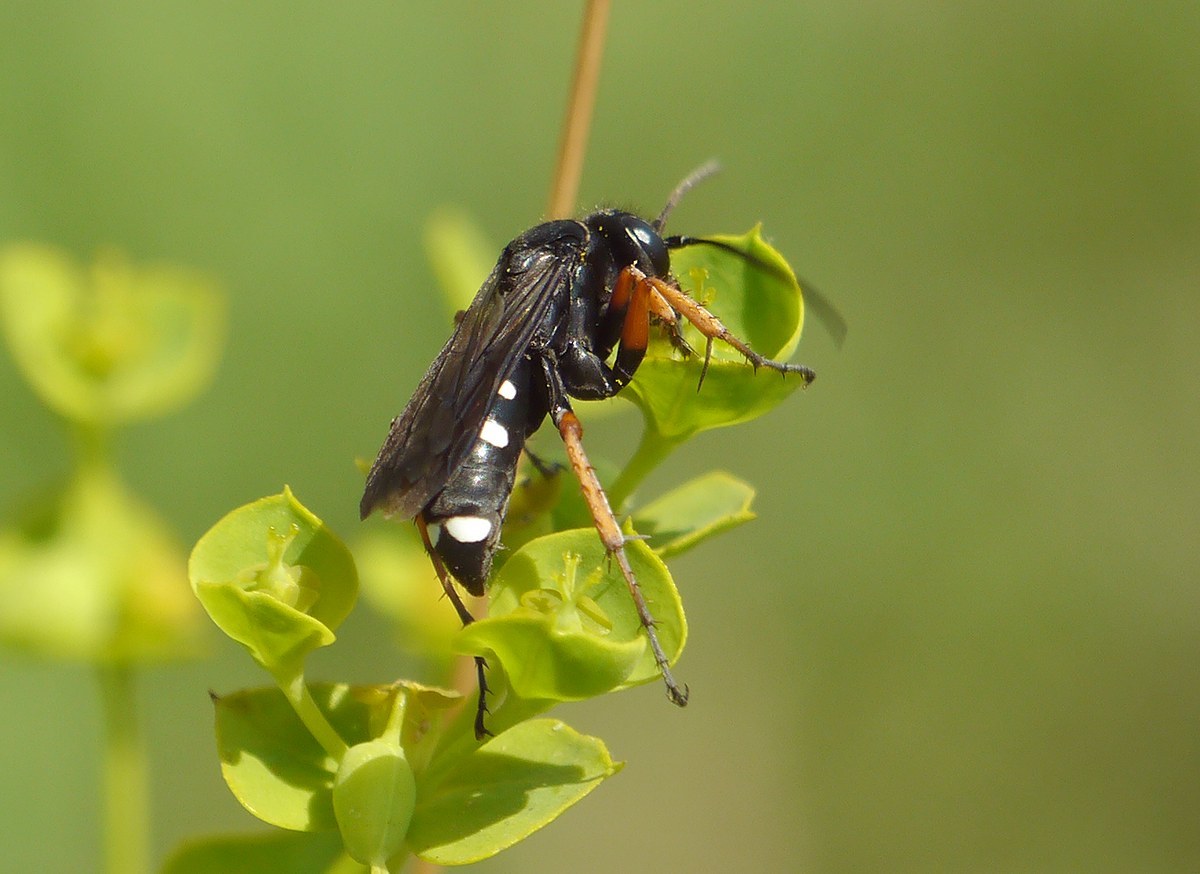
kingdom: Animalia
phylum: Arthropoda
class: Insecta
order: Hymenoptera
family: Pompilidae
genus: Episyron
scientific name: Episyron albonotatum
